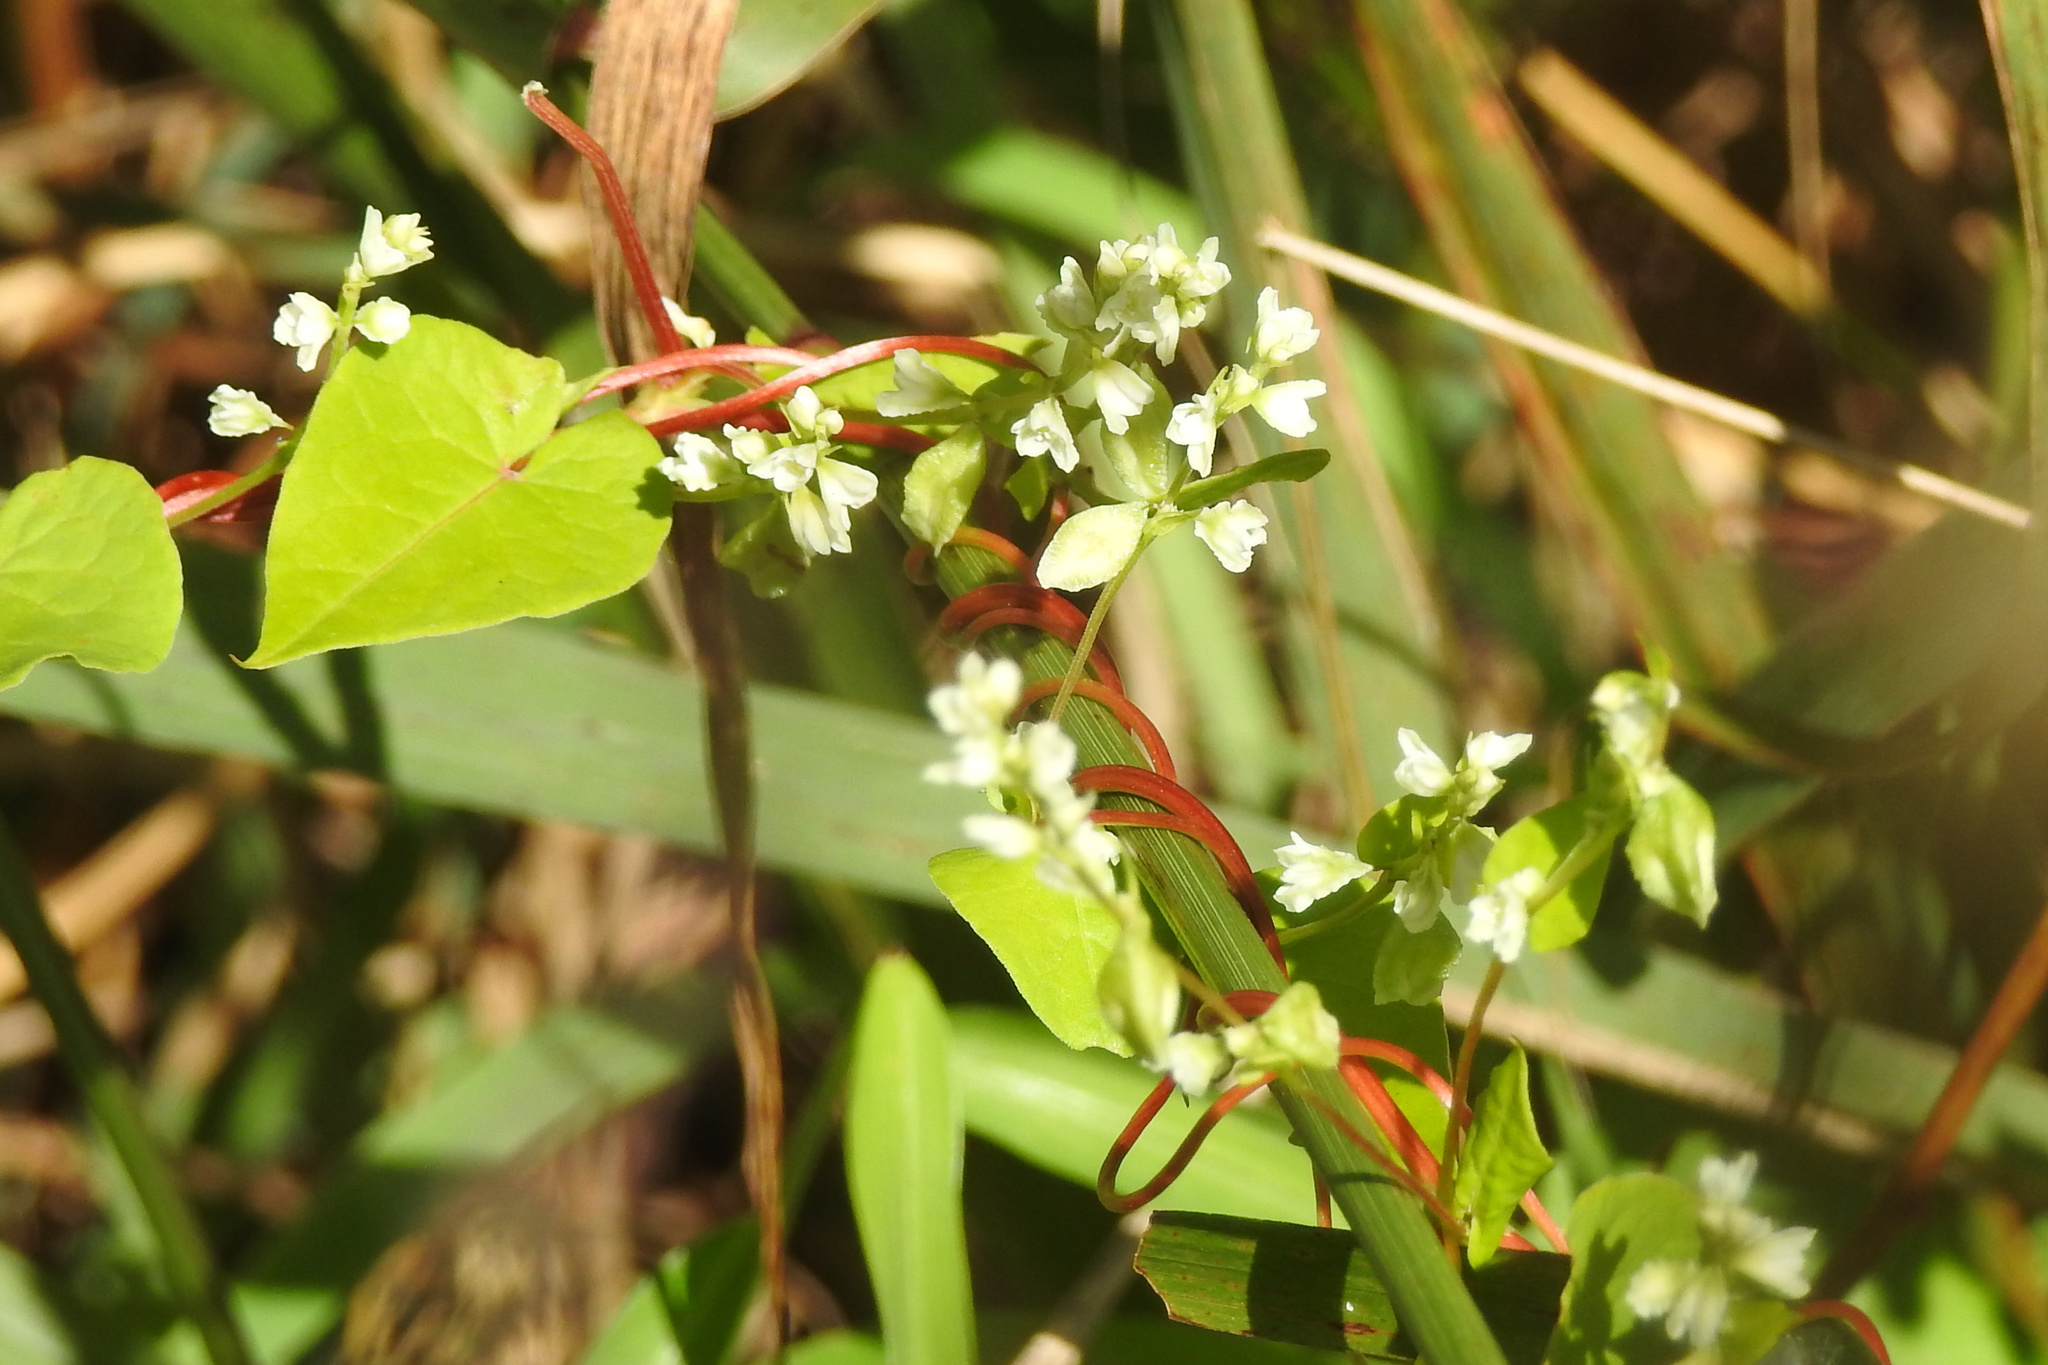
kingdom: Plantae
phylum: Tracheophyta
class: Magnoliopsida
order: Caryophyllales
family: Polygonaceae
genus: Fallopia
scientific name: Fallopia scandens
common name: Climbing false buckwheat
